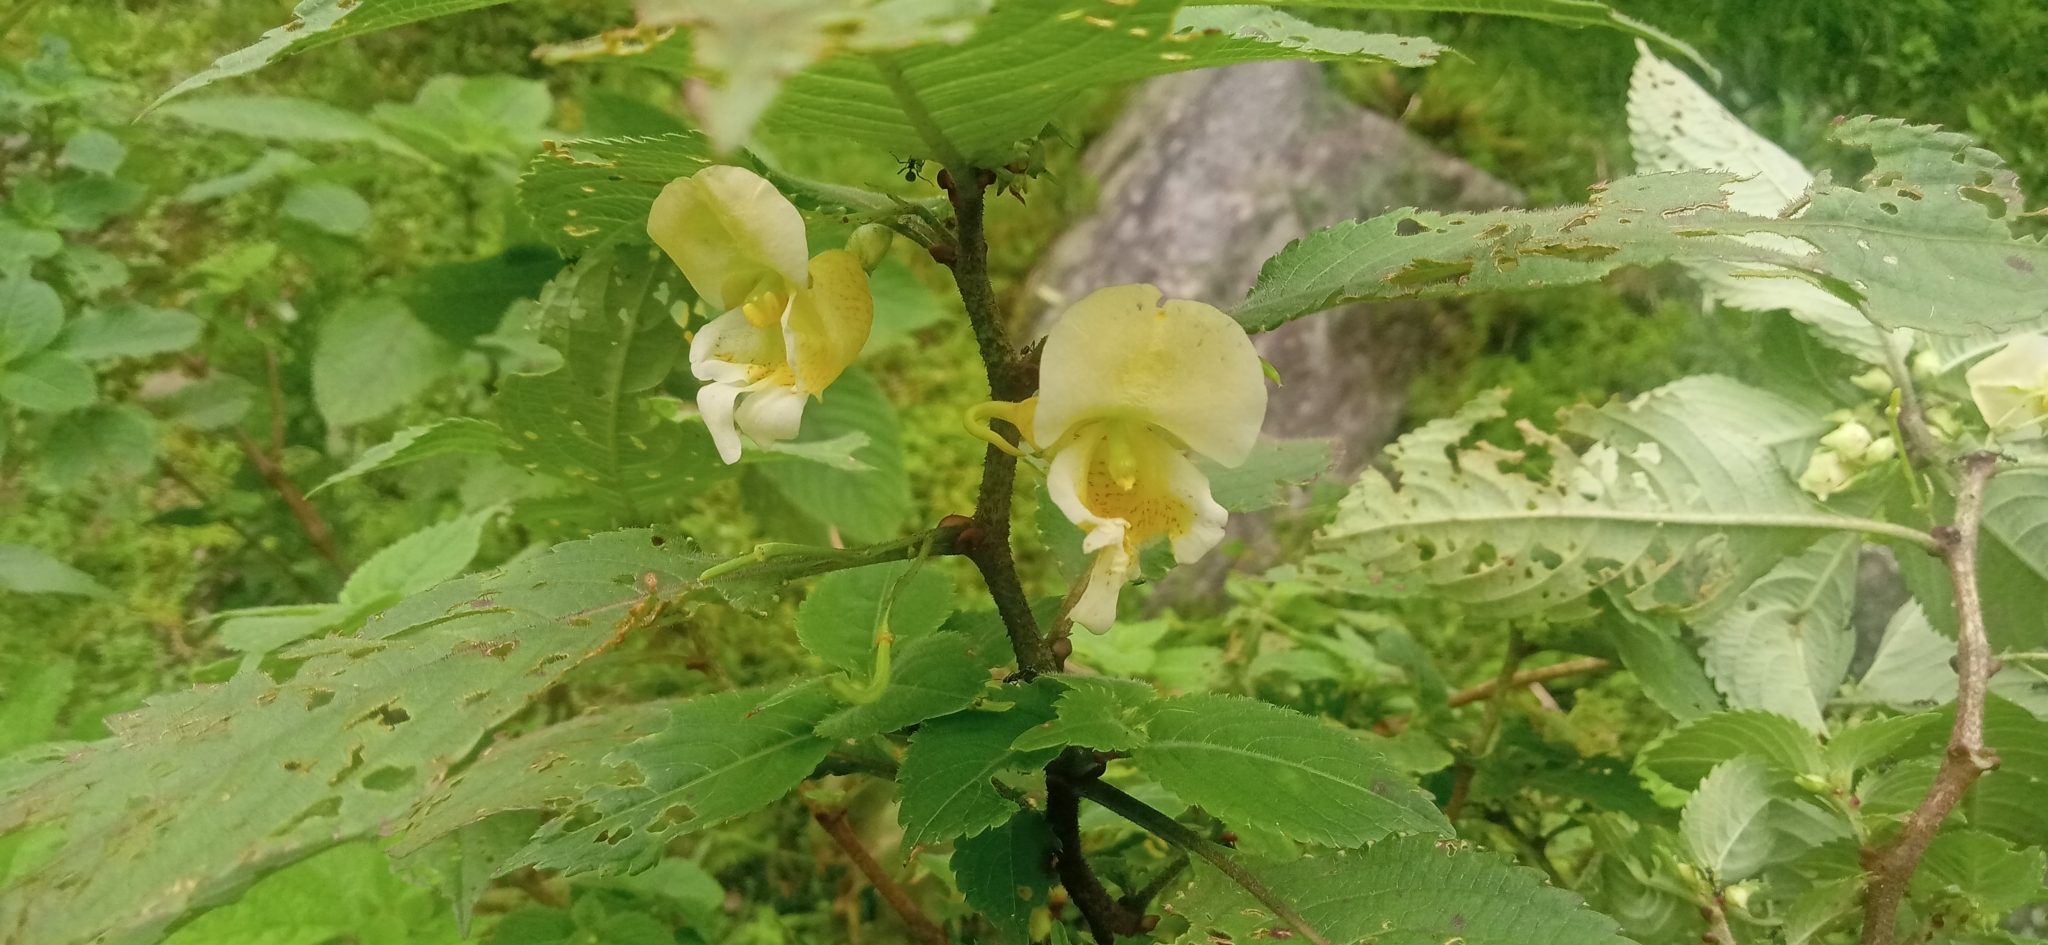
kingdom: Plantae
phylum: Tracheophyta
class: Magnoliopsida
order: Ericales
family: Balsaminaceae
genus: Impatiens
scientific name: Impatiens tricornis
